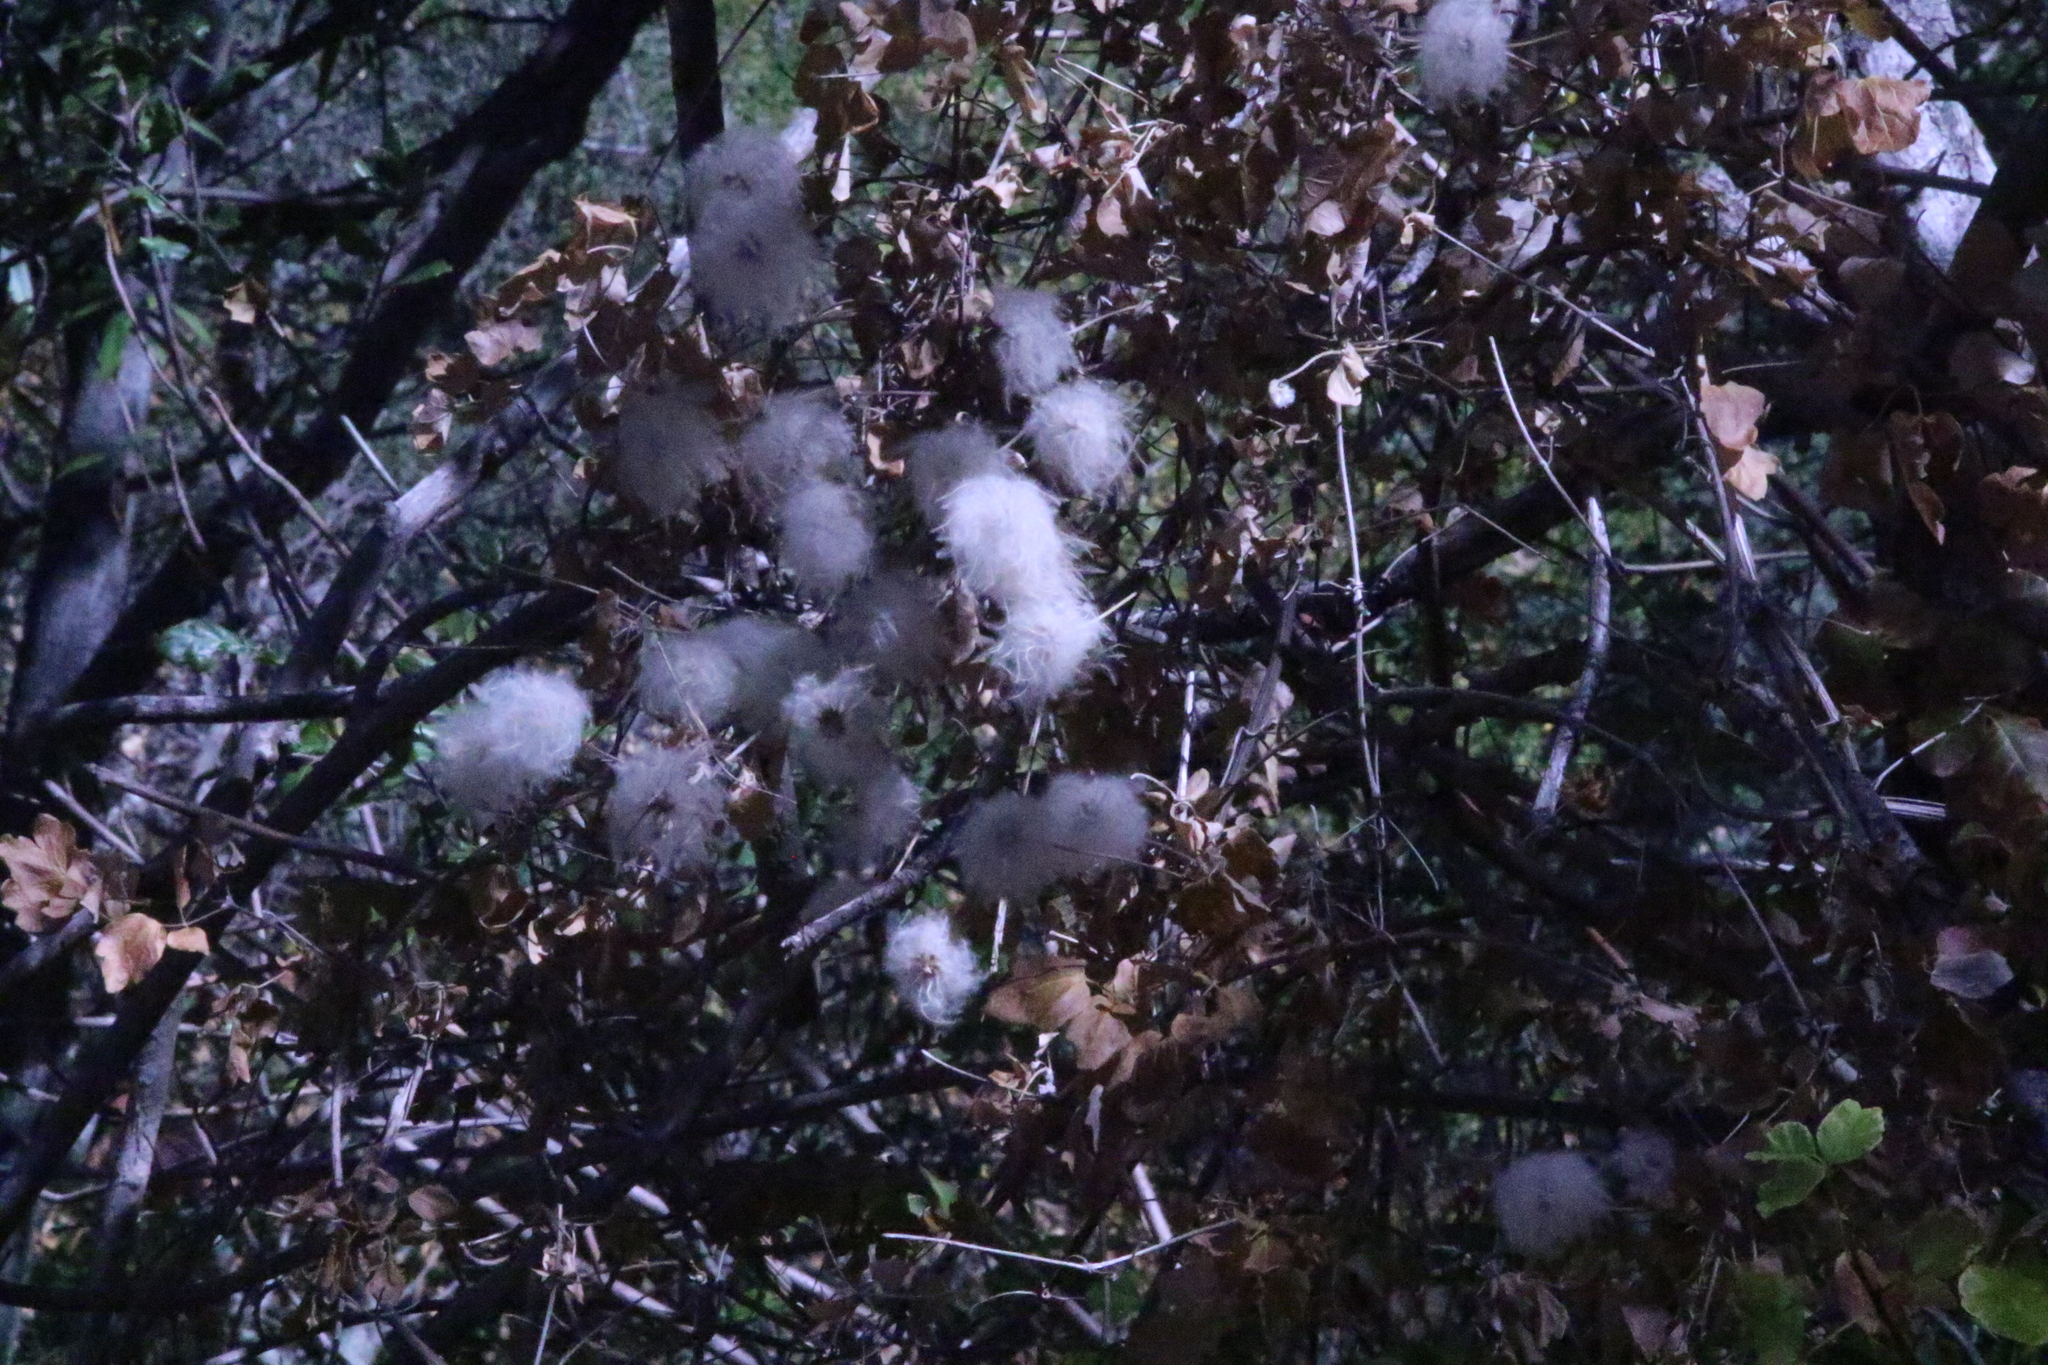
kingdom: Plantae
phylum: Tracheophyta
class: Magnoliopsida
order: Ranunculales
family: Ranunculaceae
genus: Clematis
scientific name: Clematis lasiantha
